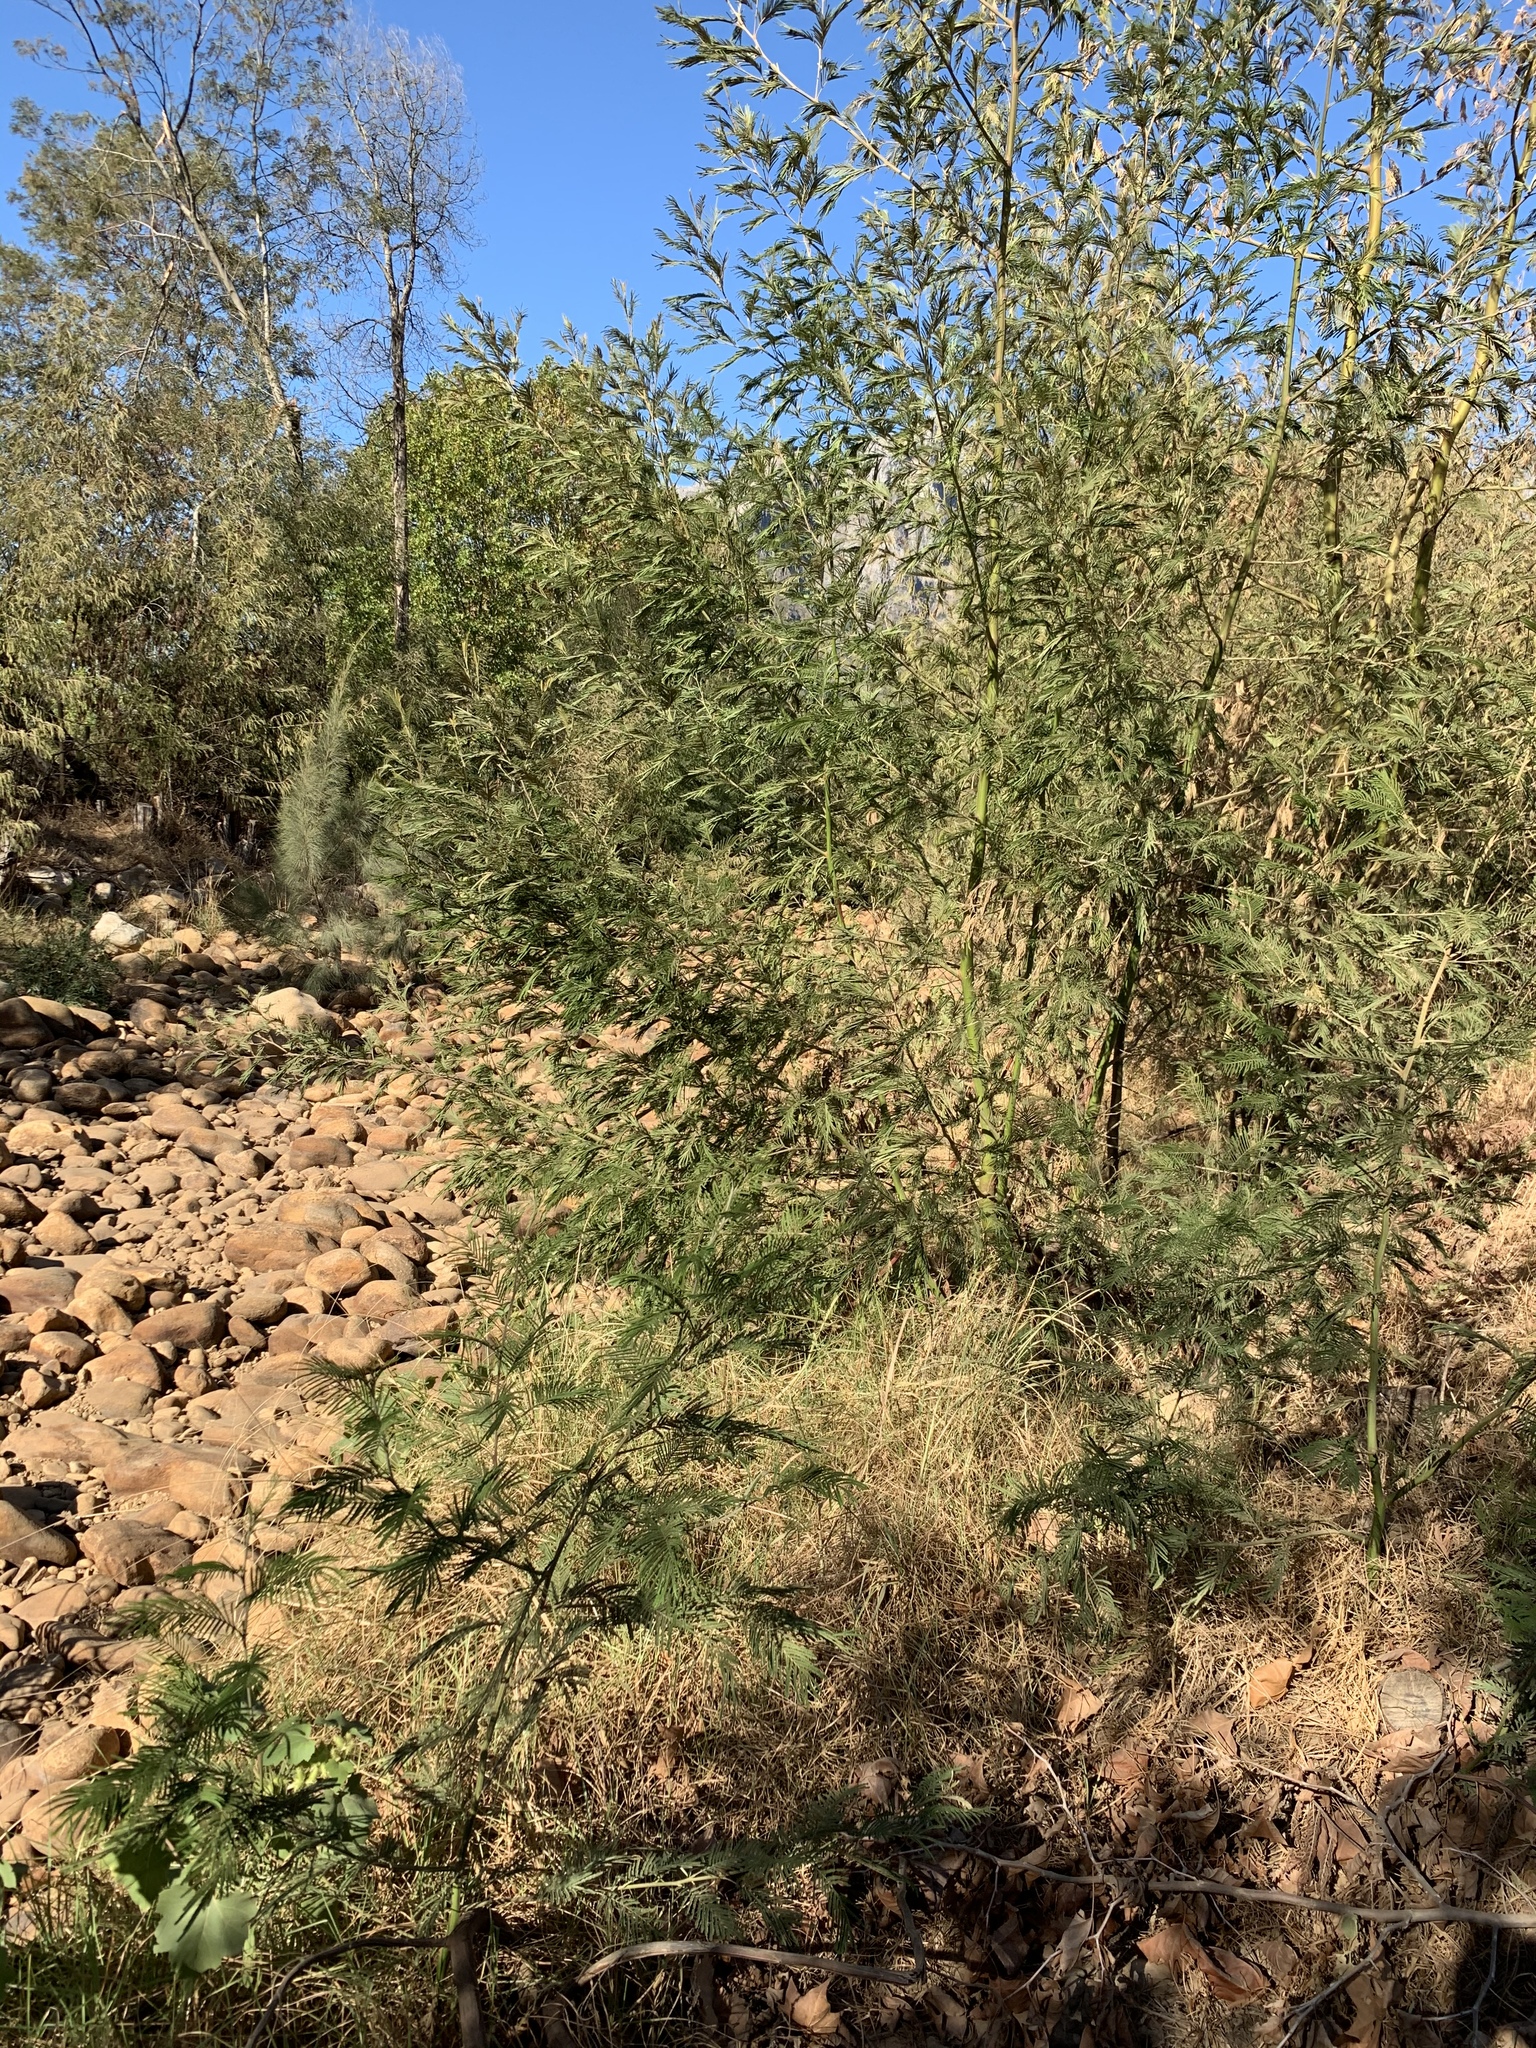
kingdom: Plantae
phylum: Tracheophyta
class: Magnoliopsida
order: Fabales
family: Fabaceae
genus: Acacia
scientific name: Acacia mearnsii
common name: Black wattle
